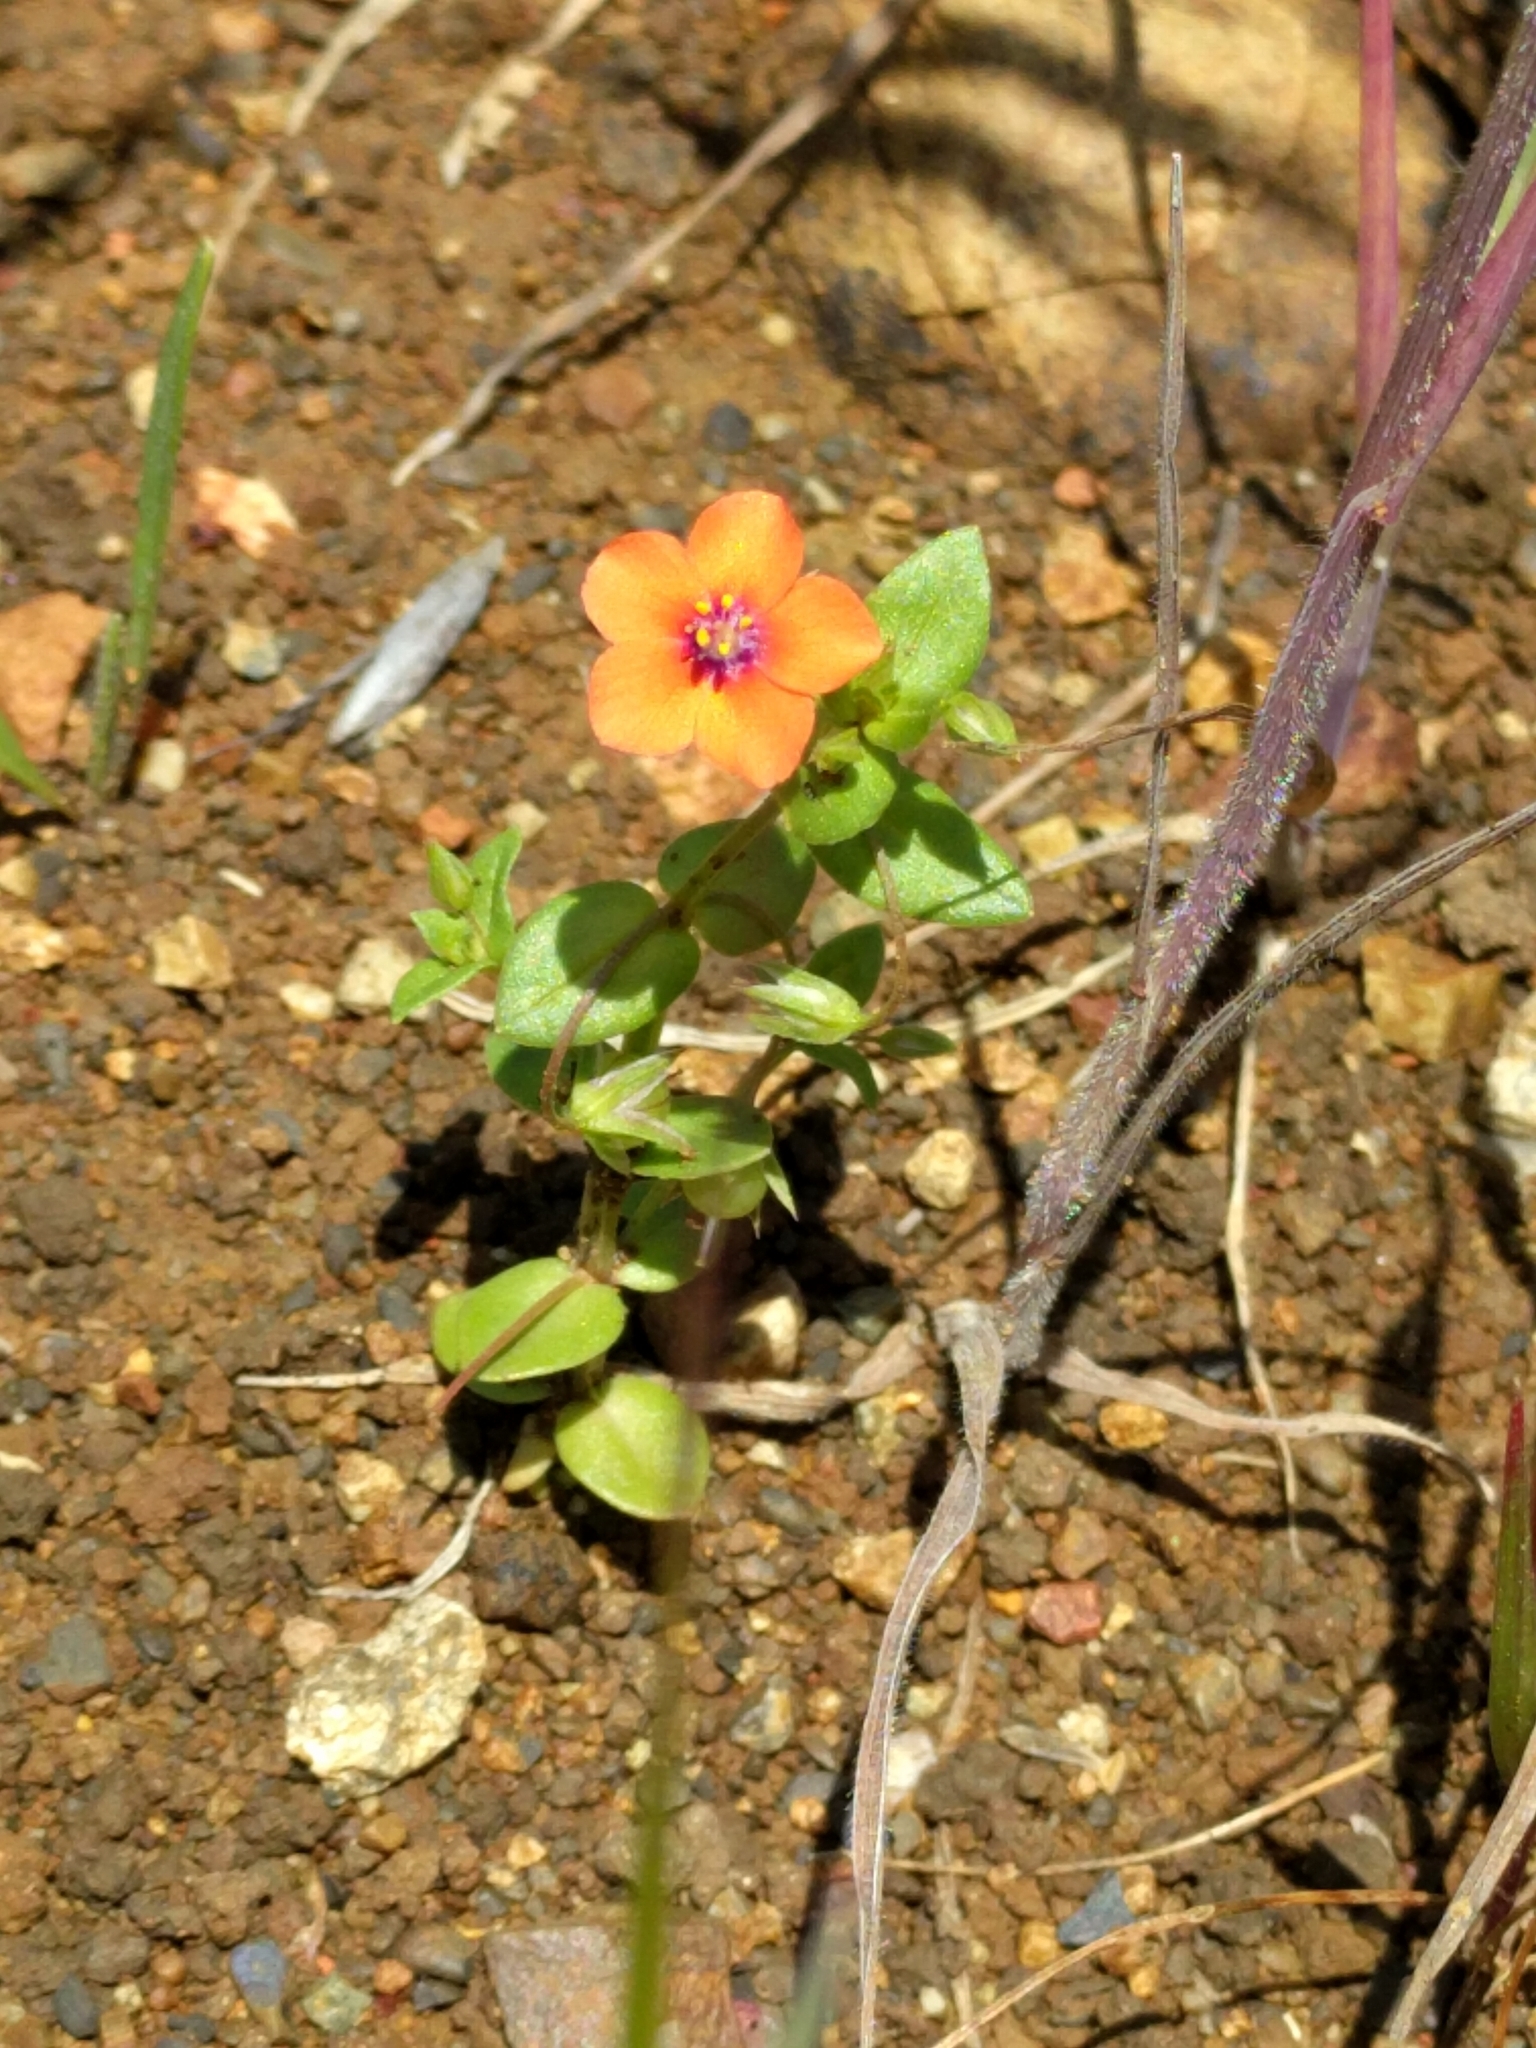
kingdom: Plantae
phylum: Tracheophyta
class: Magnoliopsida
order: Ericales
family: Primulaceae
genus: Lysimachia
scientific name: Lysimachia arvensis
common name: Scarlet pimpernel
